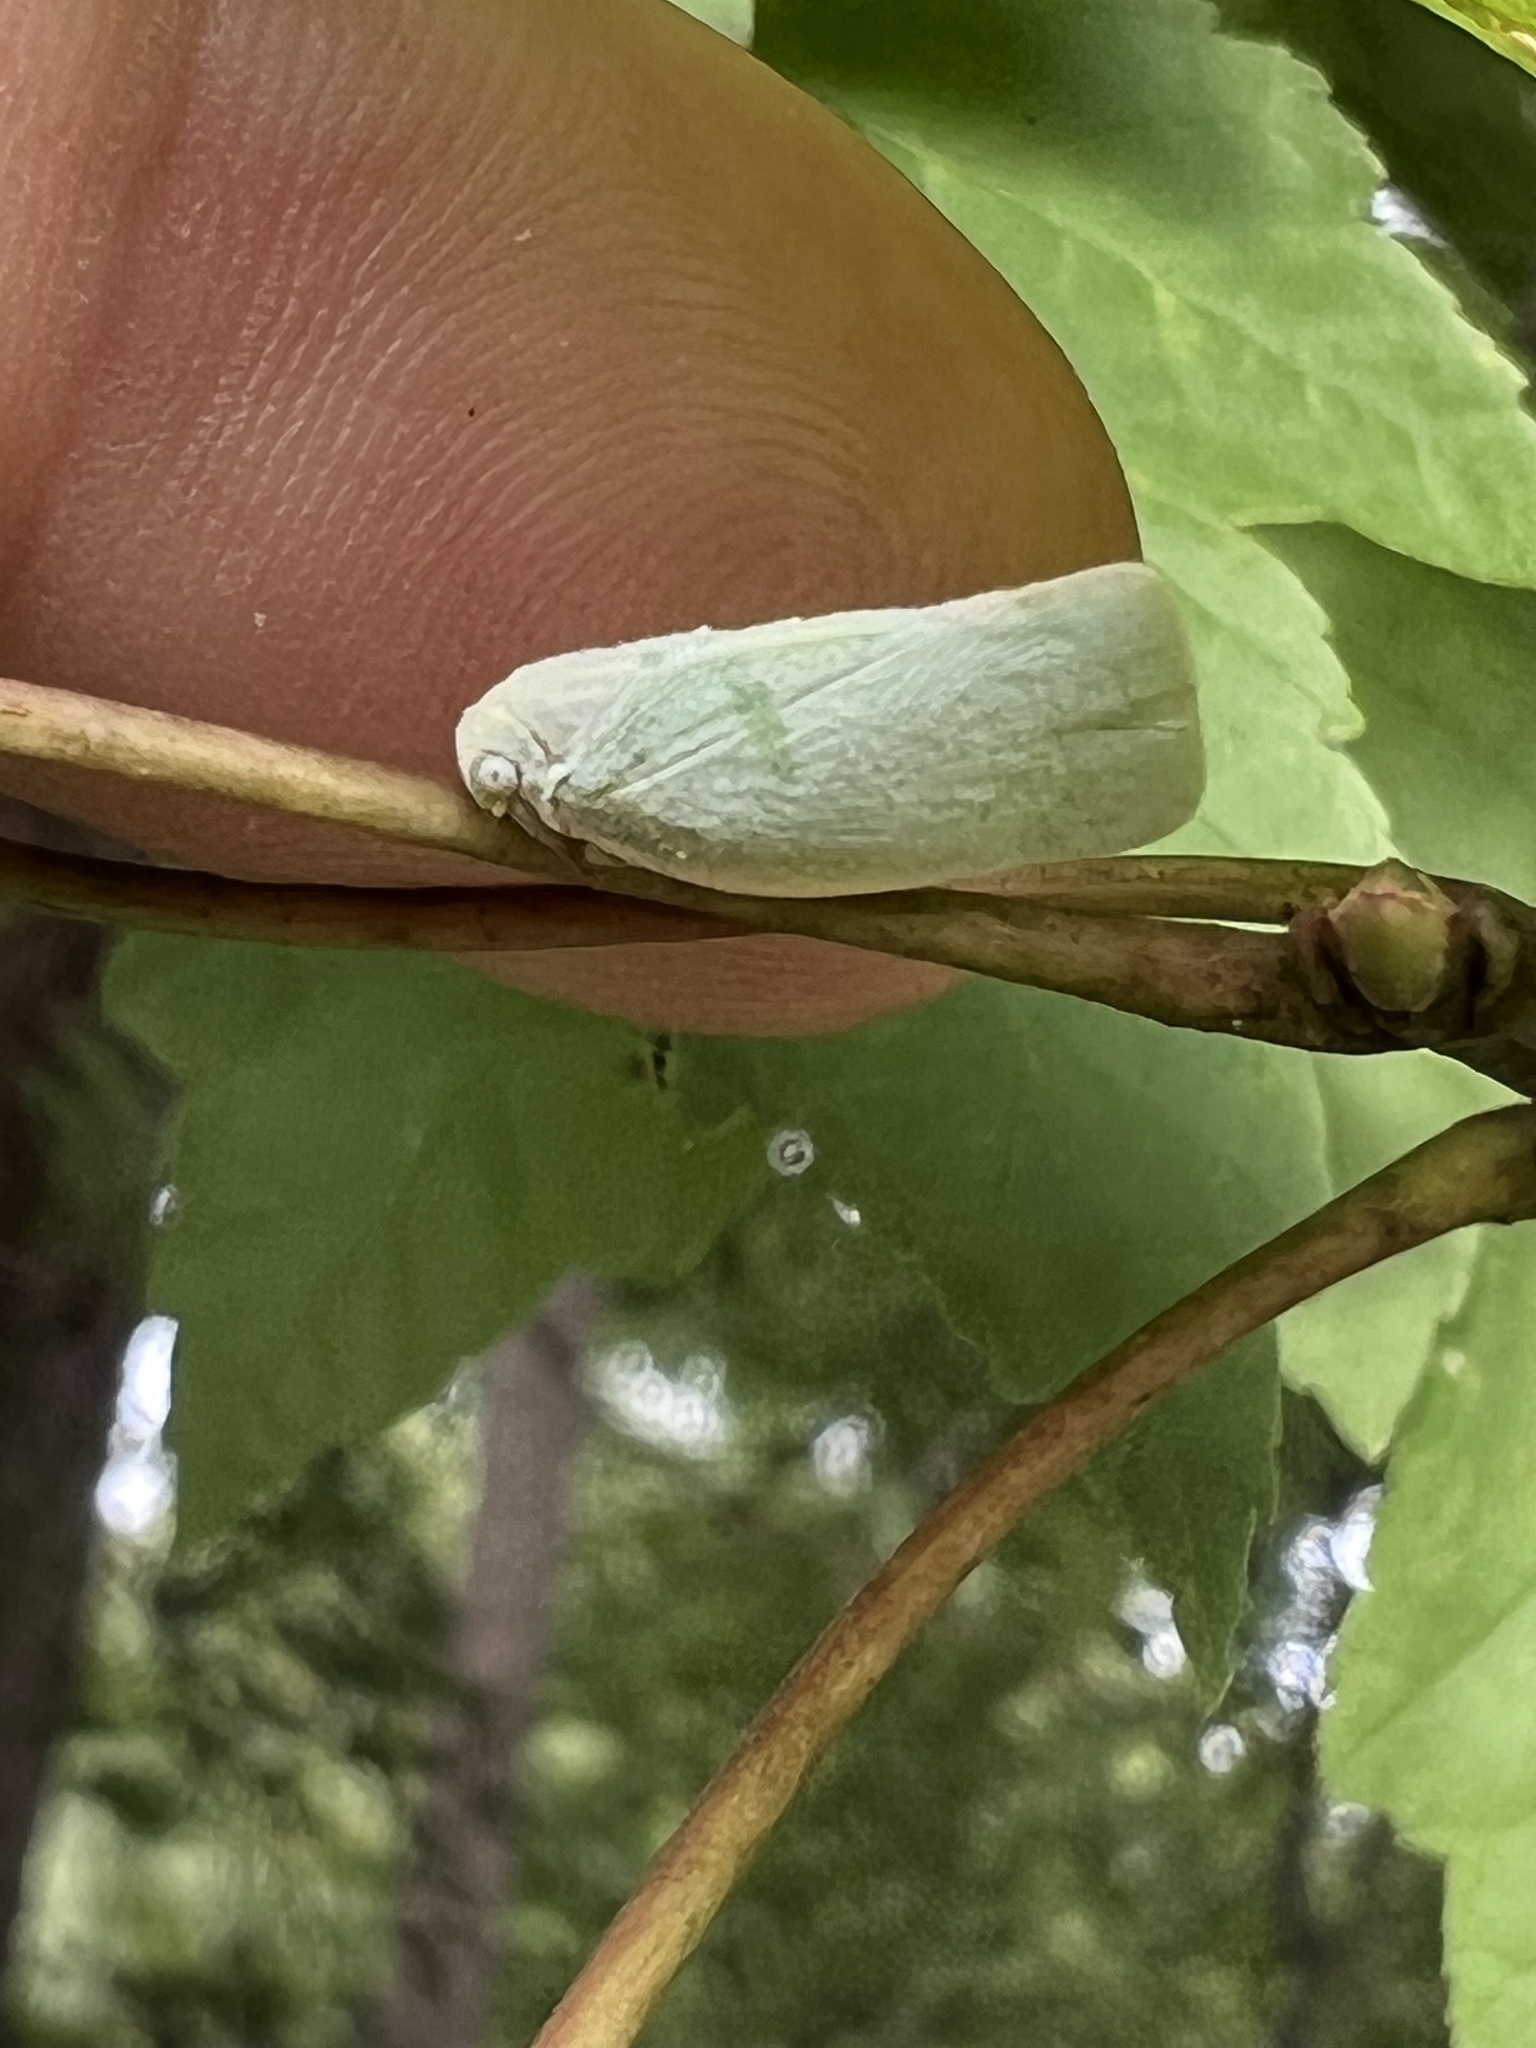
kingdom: Animalia
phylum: Arthropoda
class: Insecta
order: Hemiptera
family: Flatidae
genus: Flatormenis
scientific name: Flatormenis proxima
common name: Northern flatid planthopper
